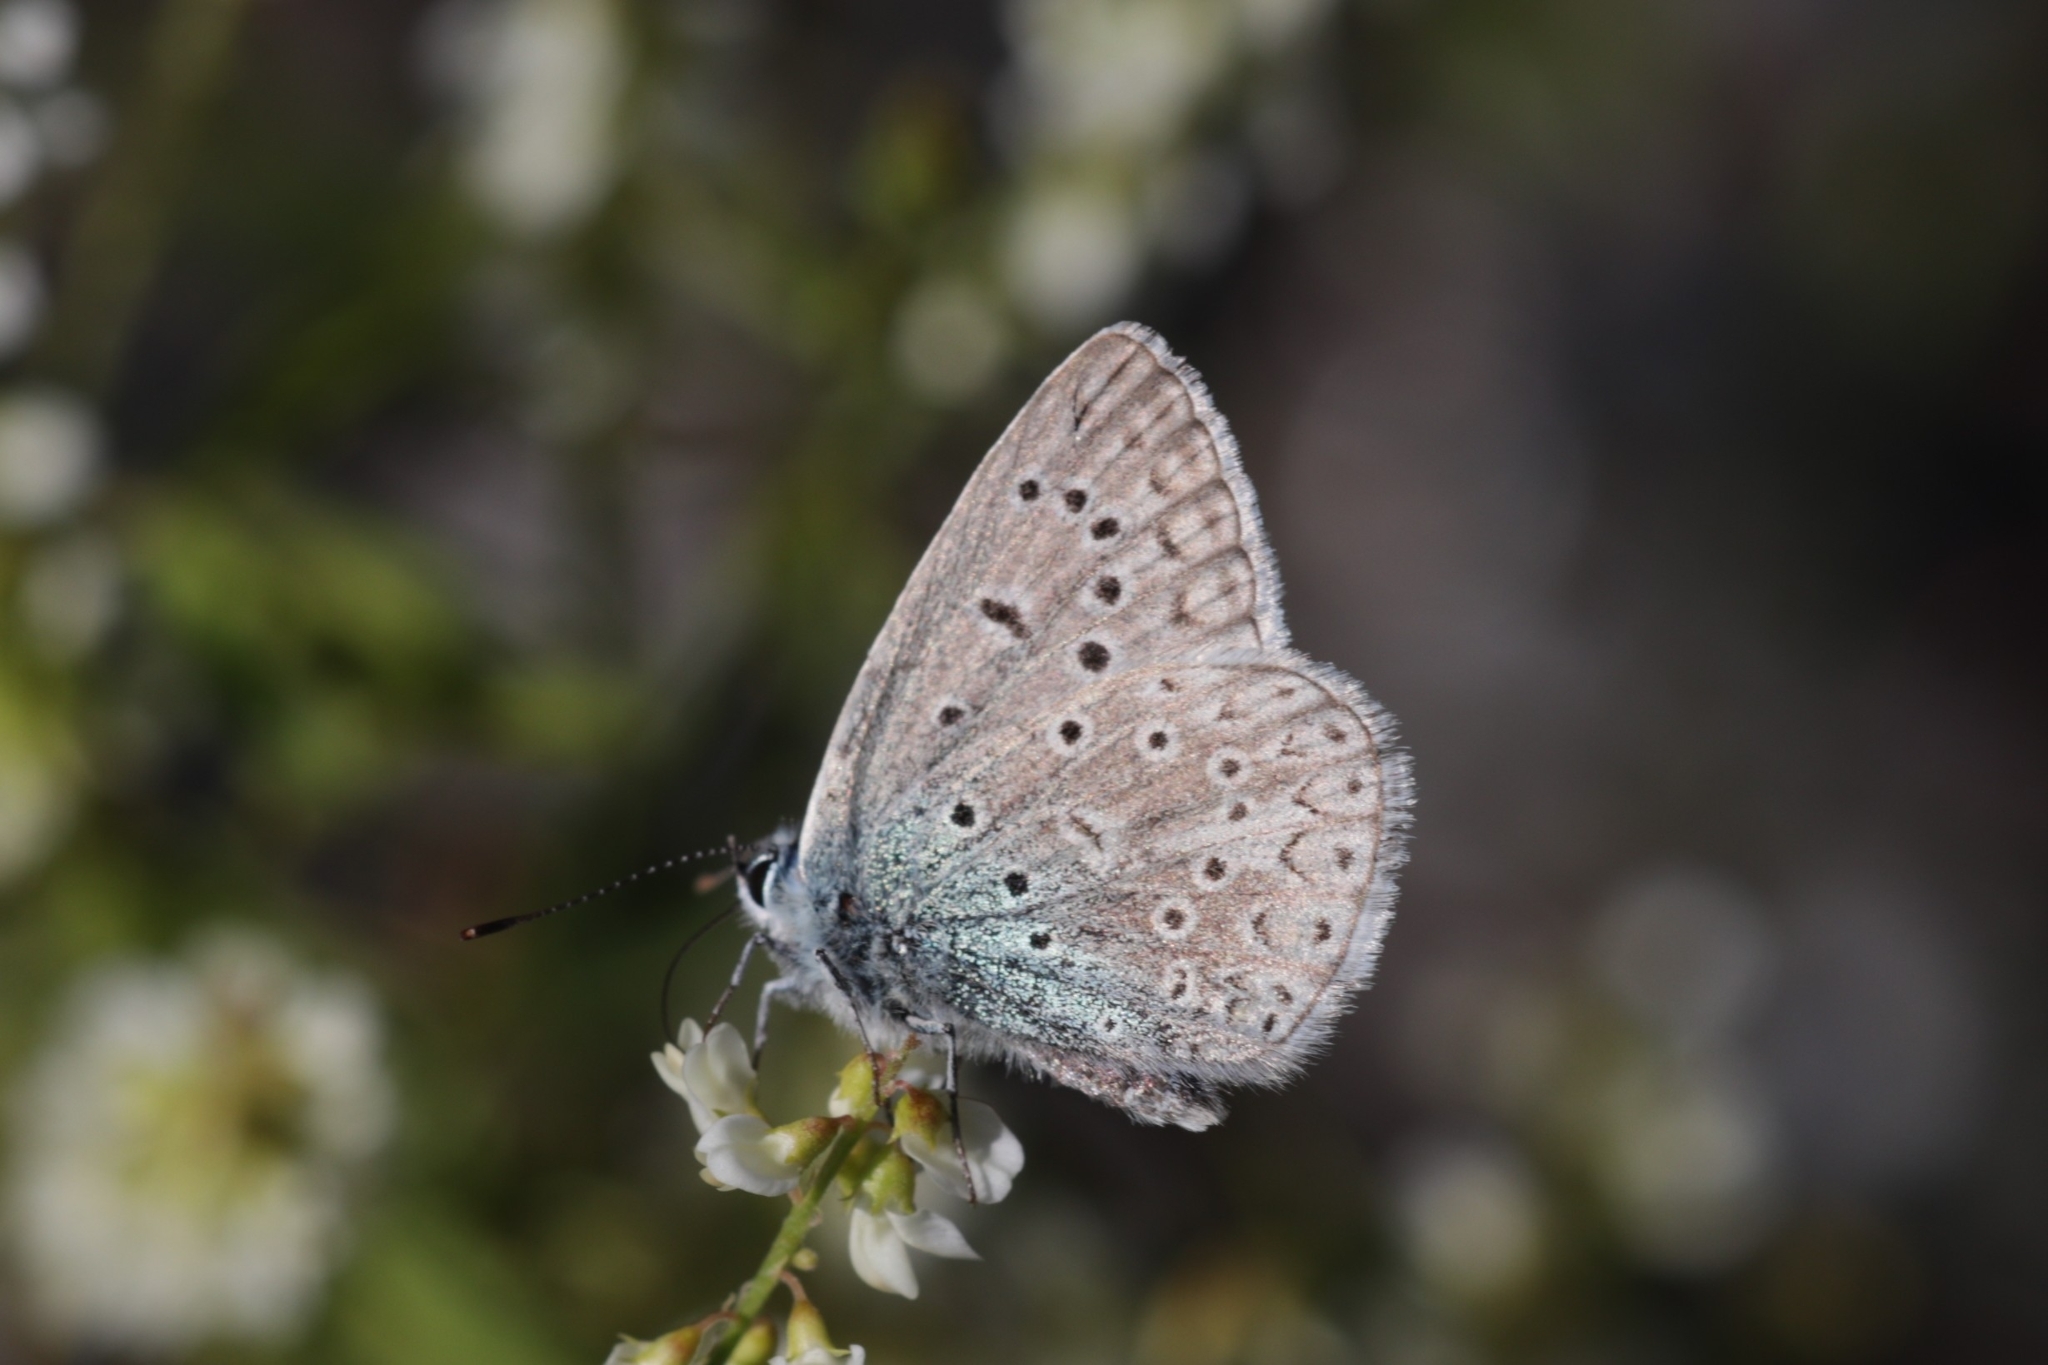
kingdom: Animalia
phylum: Arthropoda
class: Insecta
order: Lepidoptera
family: Lycaenidae
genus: Polyommatus
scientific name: Polyommatus icarus
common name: Common blue
